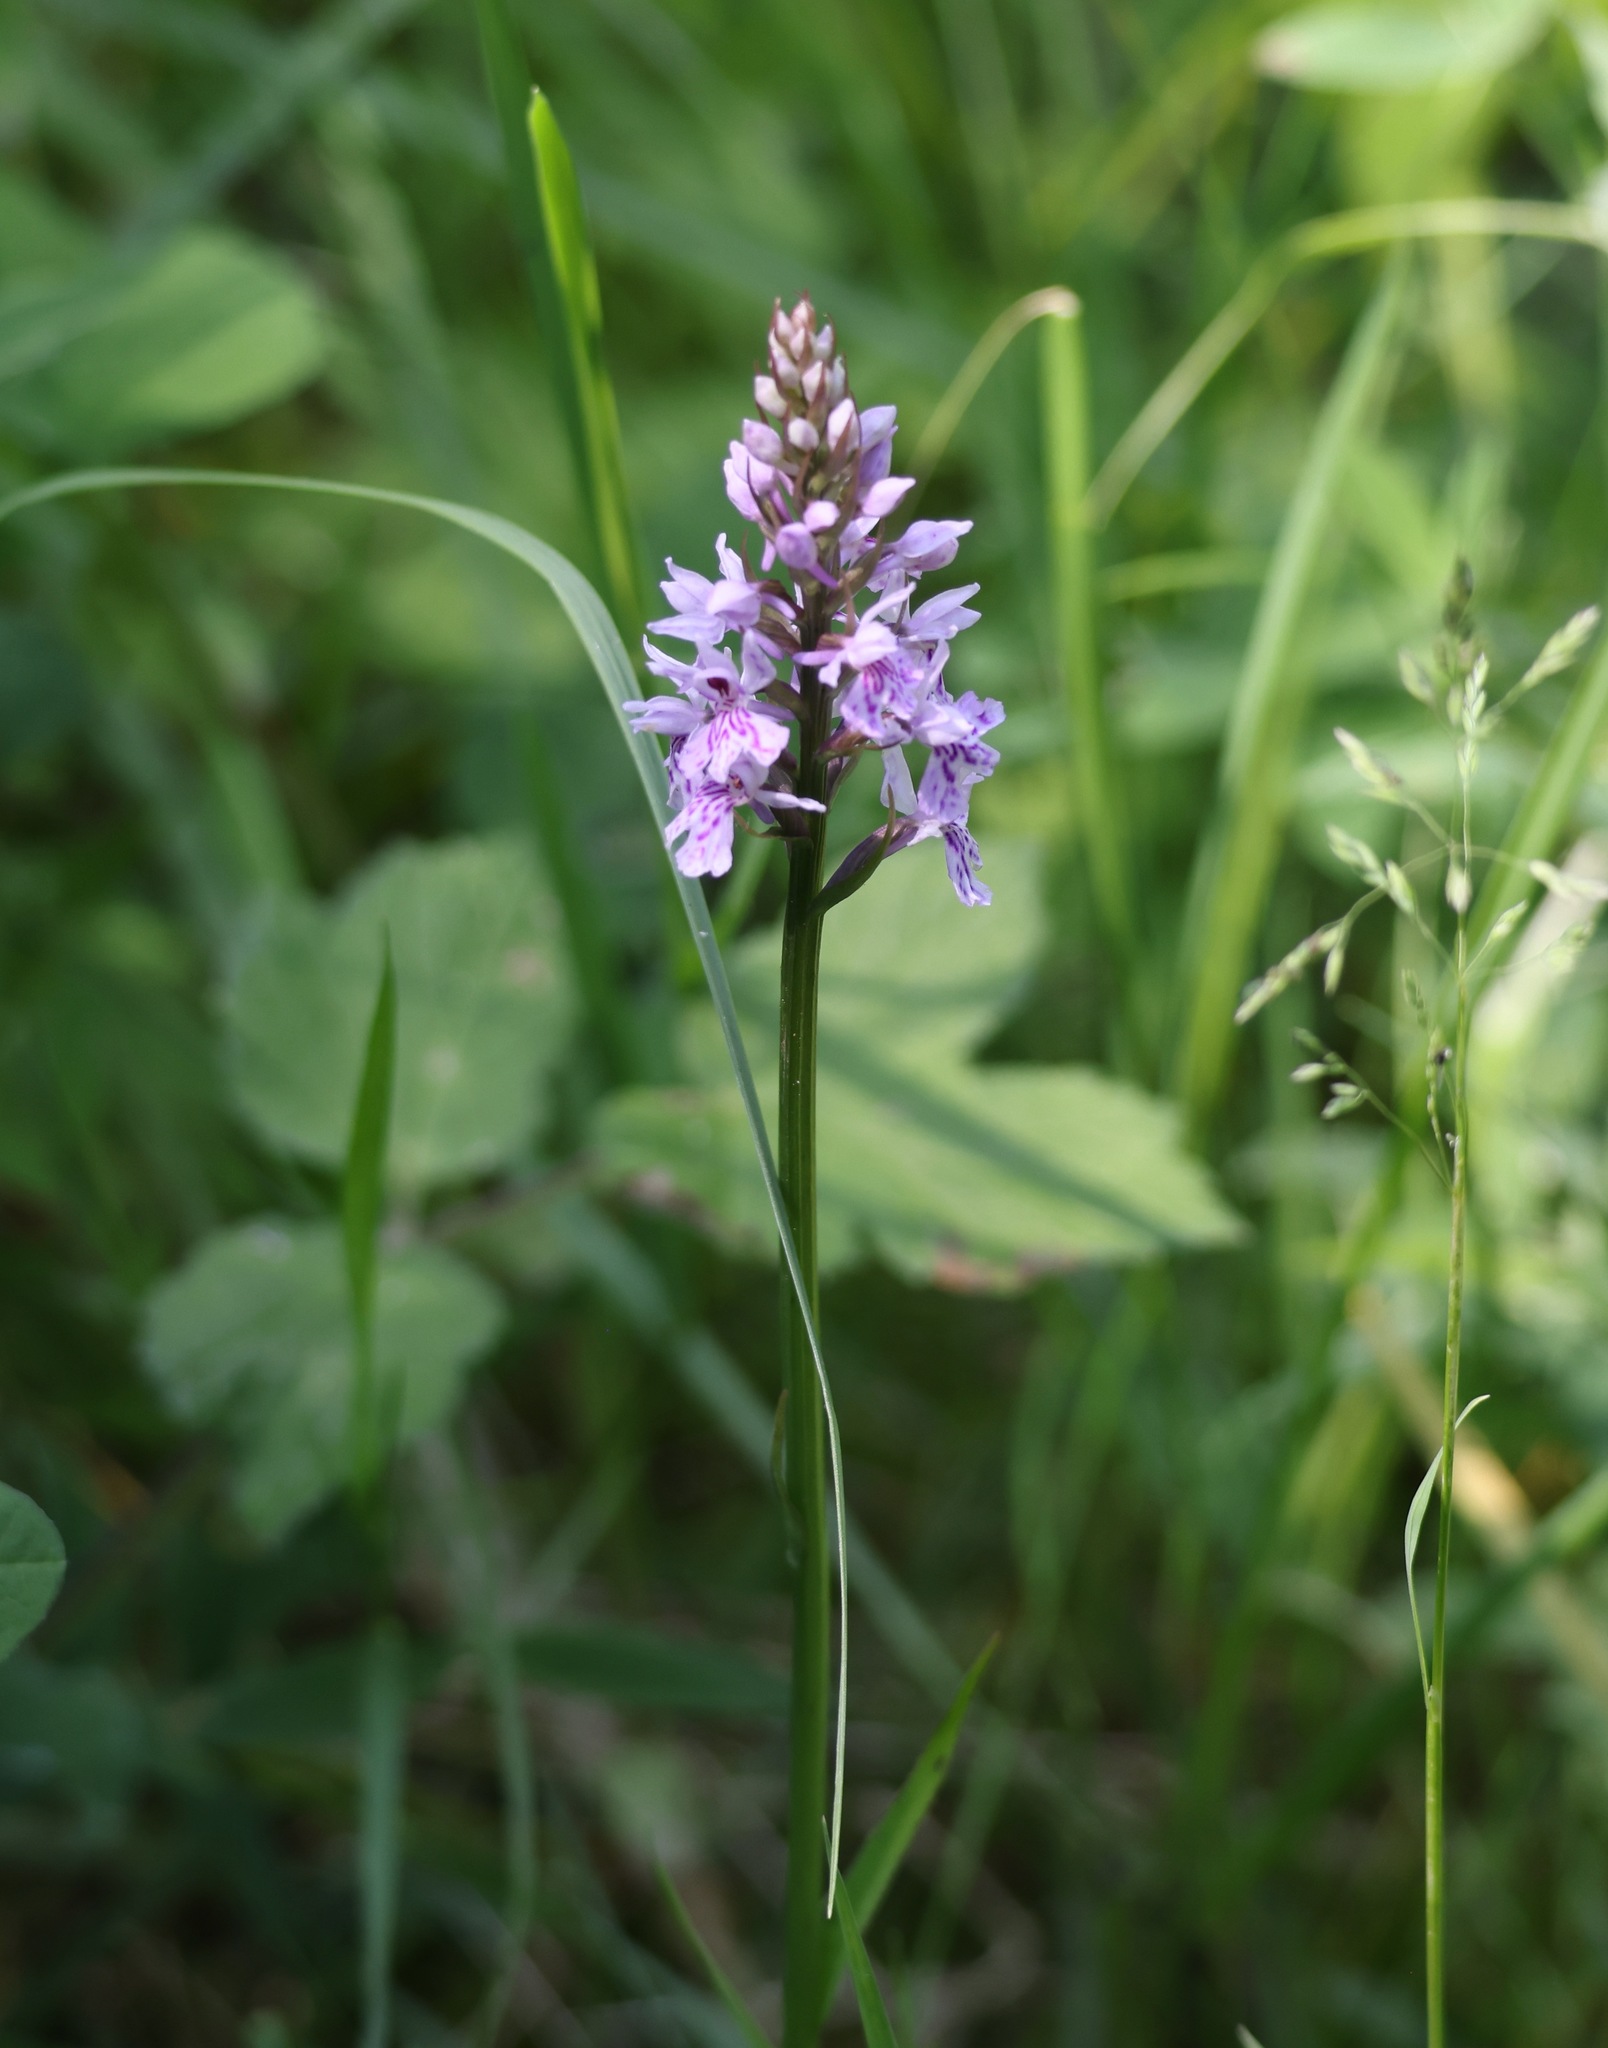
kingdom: Plantae
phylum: Tracheophyta
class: Liliopsida
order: Asparagales
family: Orchidaceae
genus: Dactylorhiza
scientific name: Dactylorhiza maculata
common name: Heath spotted-orchid
